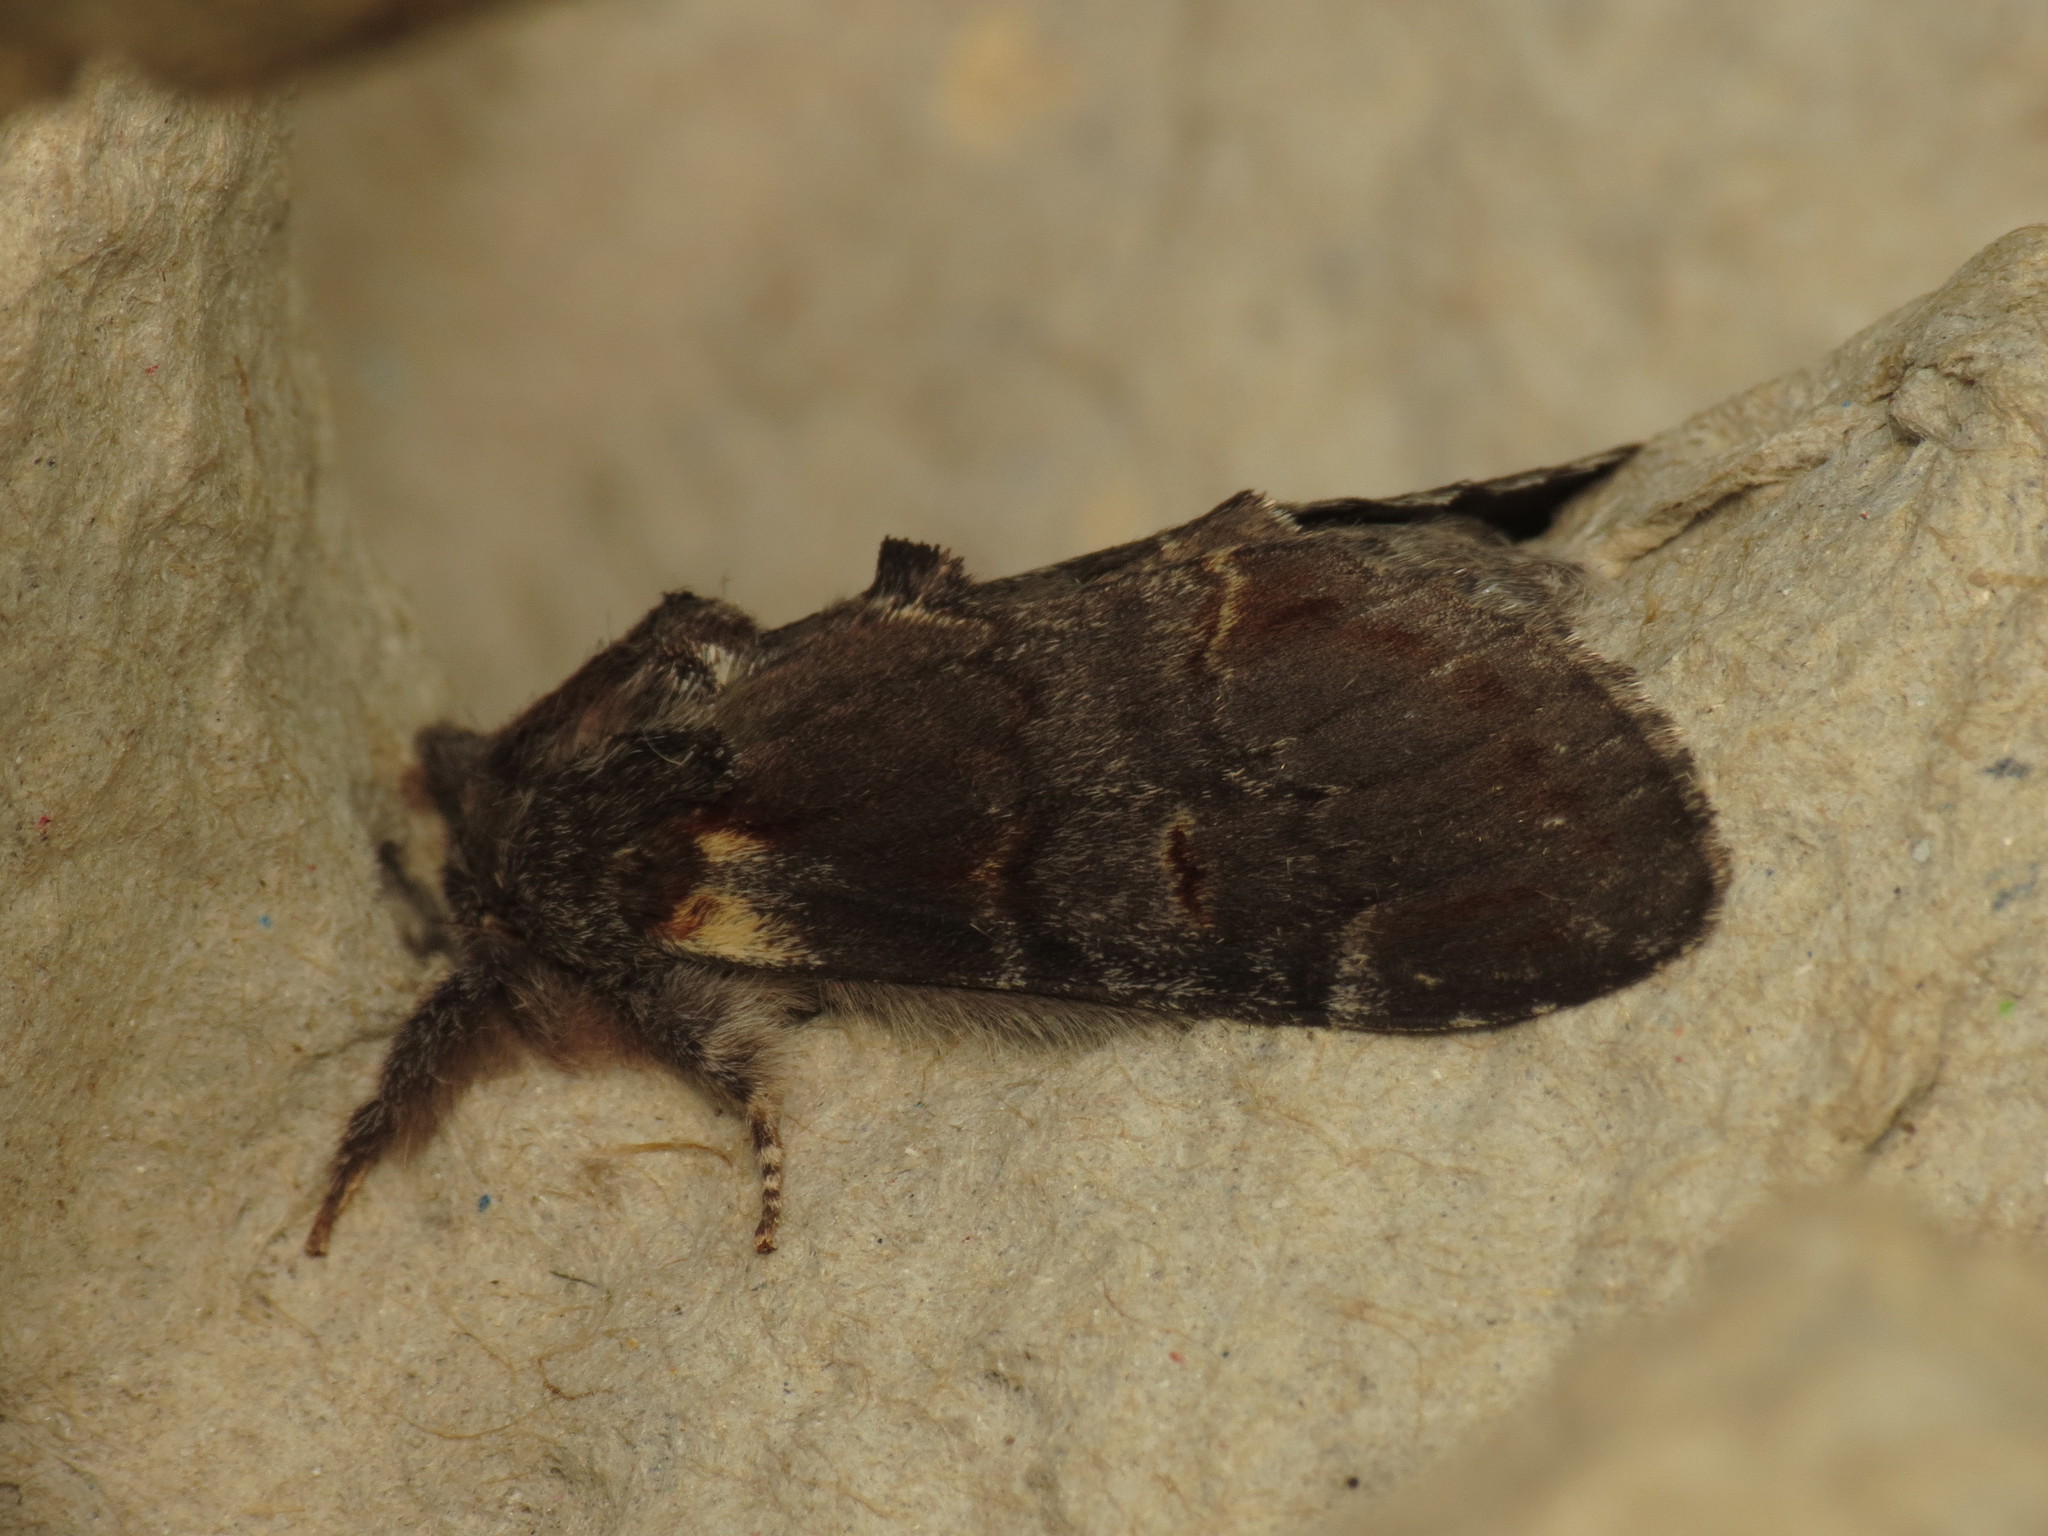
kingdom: Animalia
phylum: Arthropoda
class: Insecta
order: Lepidoptera
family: Notodontidae
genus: Notodonta
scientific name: Notodonta dromedarius
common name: Iron prominent
